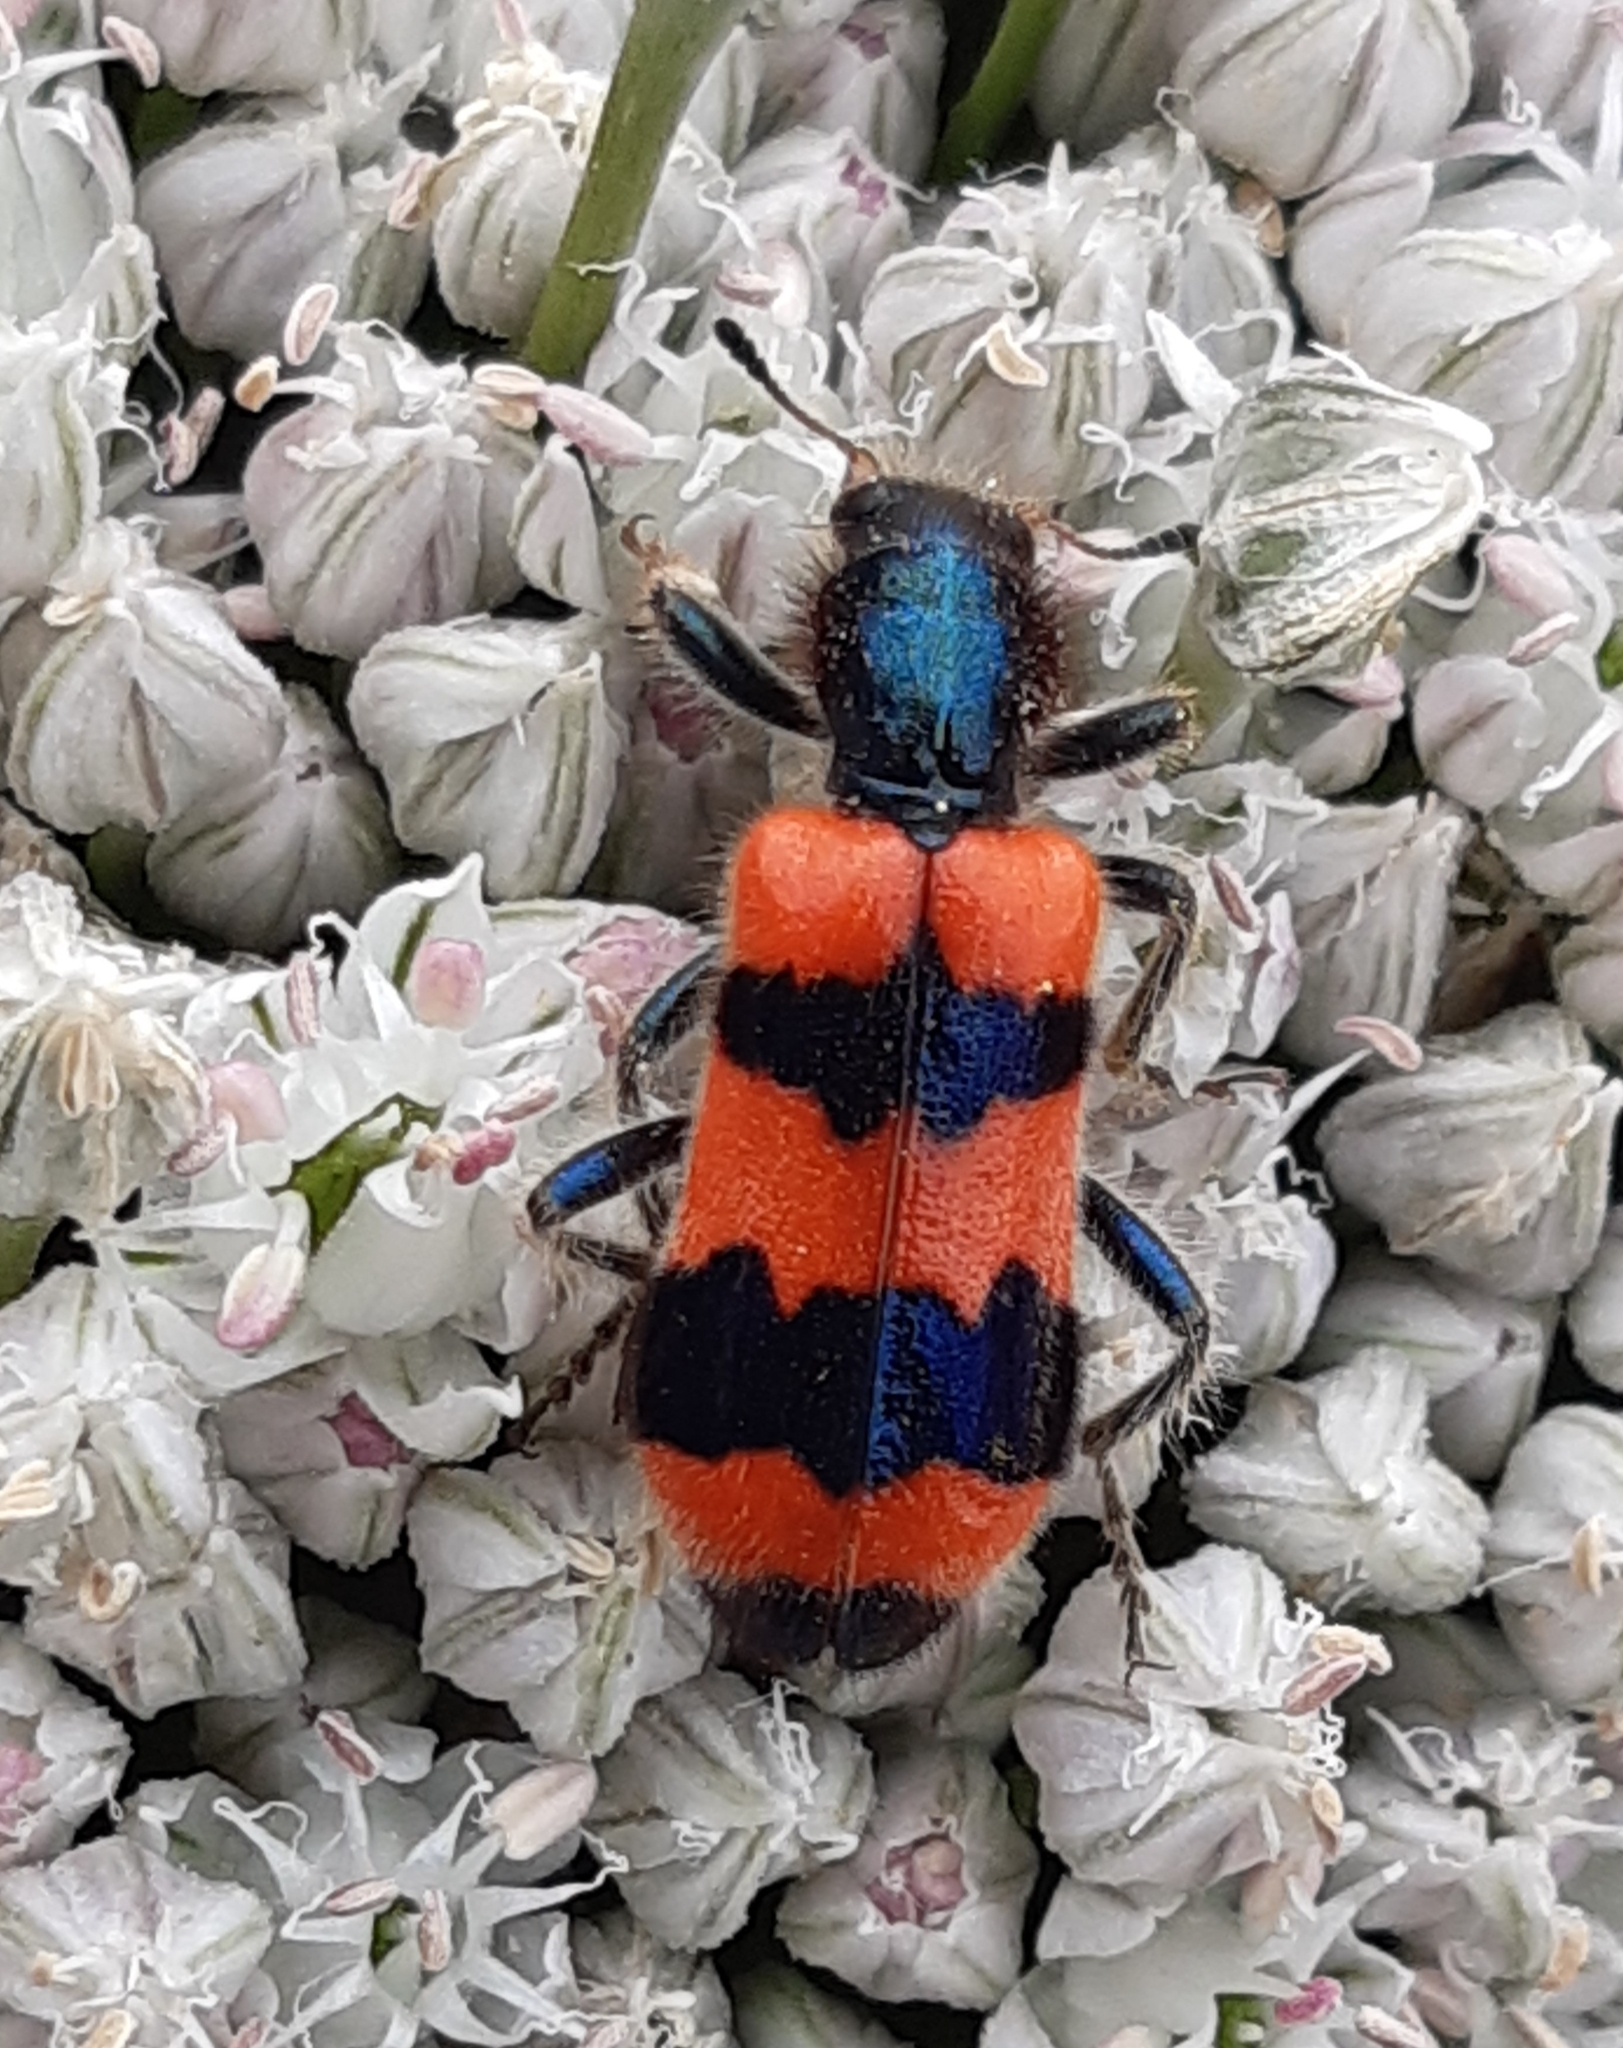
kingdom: Animalia
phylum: Arthropoda
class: Insecta
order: Coleoptera
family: Cleridae
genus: Trichodes
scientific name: Trichodes apiarius
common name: Bee-eating beetle
